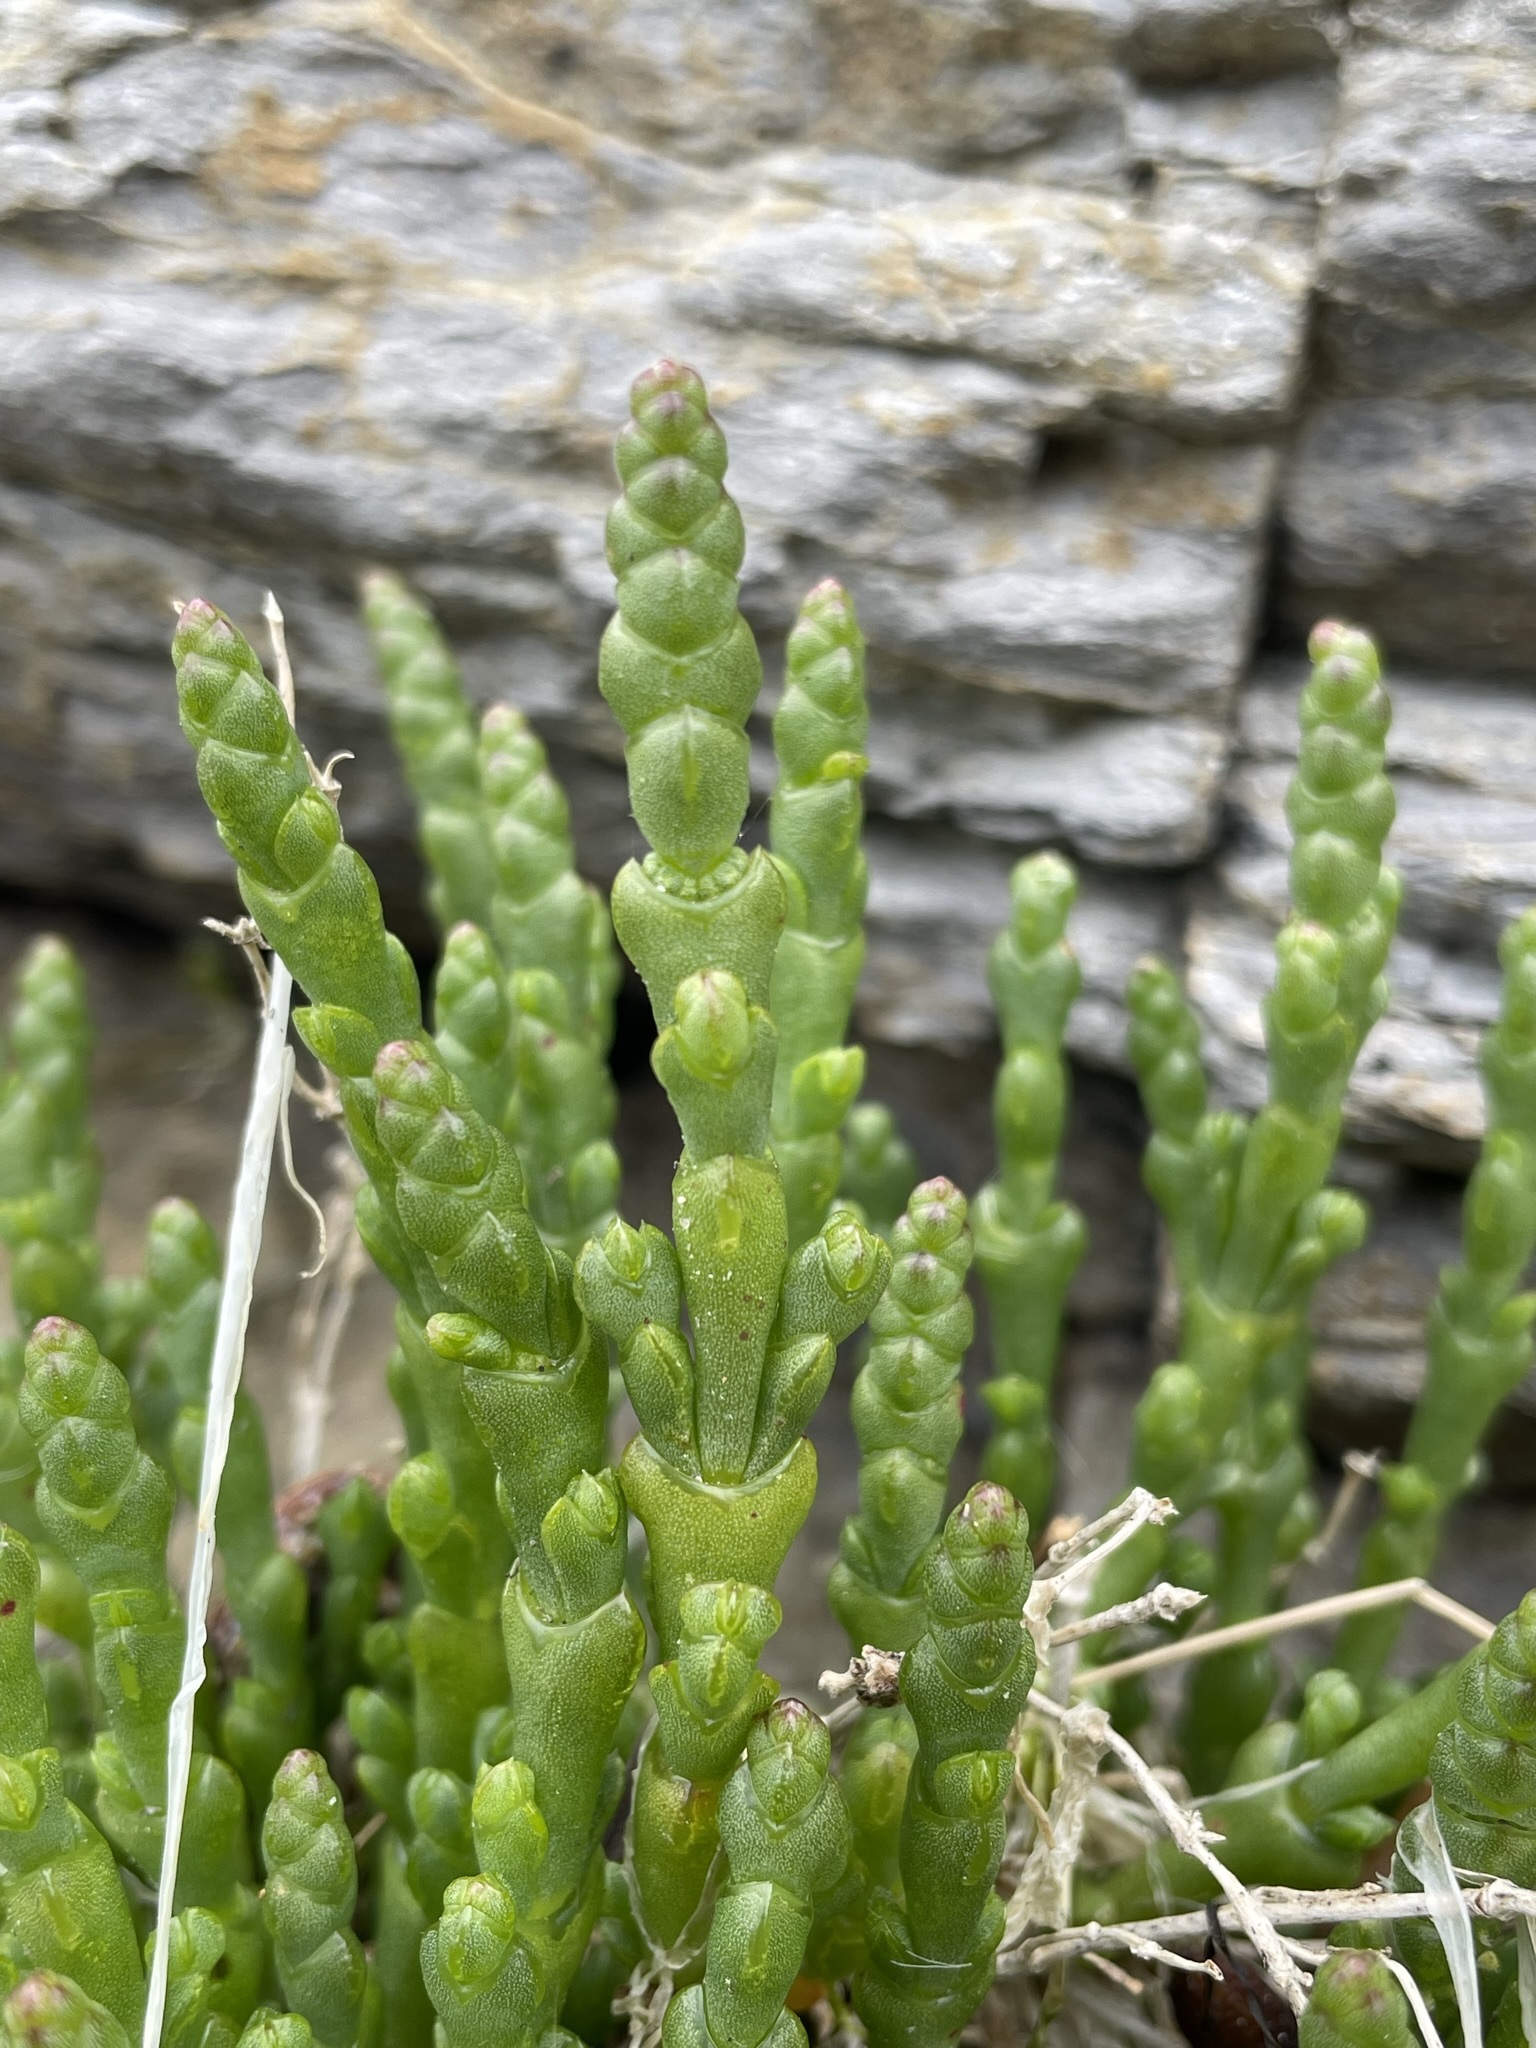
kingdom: Plantae
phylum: Tracheophyta
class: Magnoliopsida
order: Caryophyllales
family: Amaranthaceae
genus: Salicornia
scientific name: Salicornia quinqueflora
